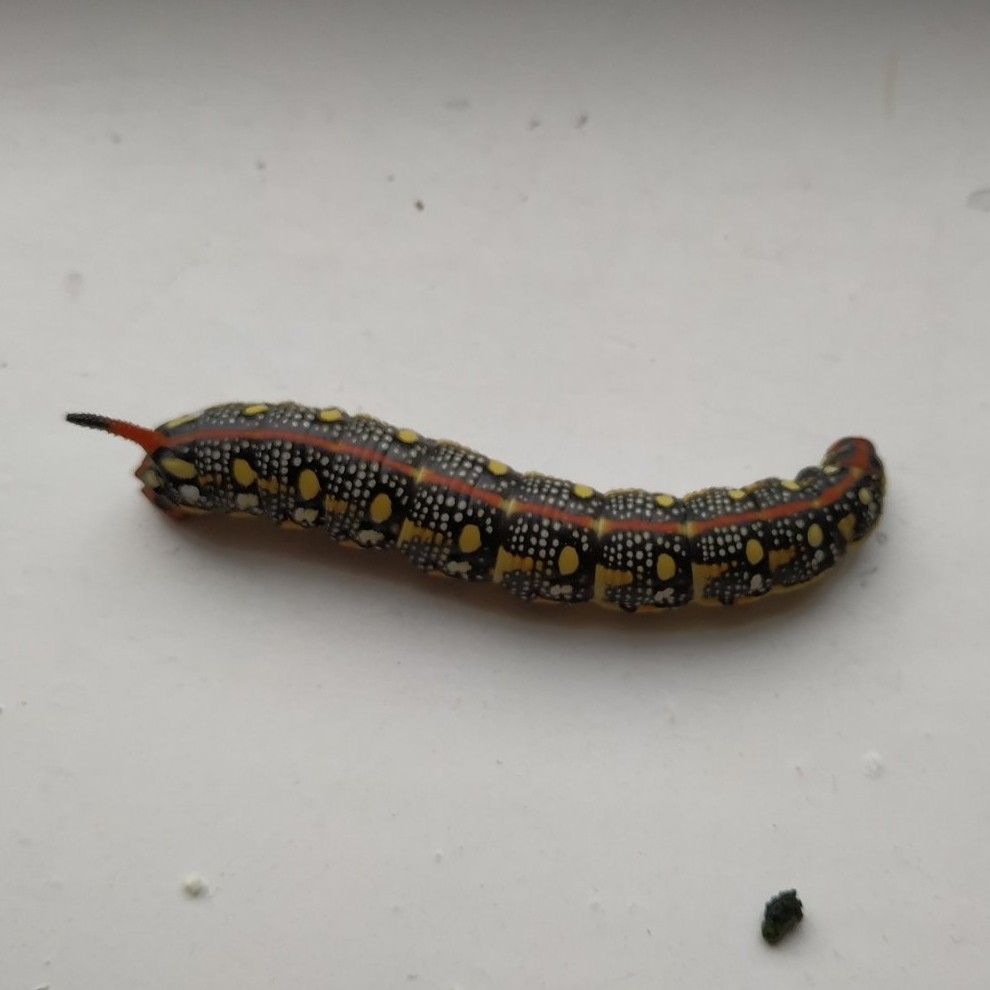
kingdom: Animalia
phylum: Arthropoda
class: Insecta
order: Lepidoptera
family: Sphingidae
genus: Hyles
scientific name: Hyles euphorbiae
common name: Spurge hawk-moth
